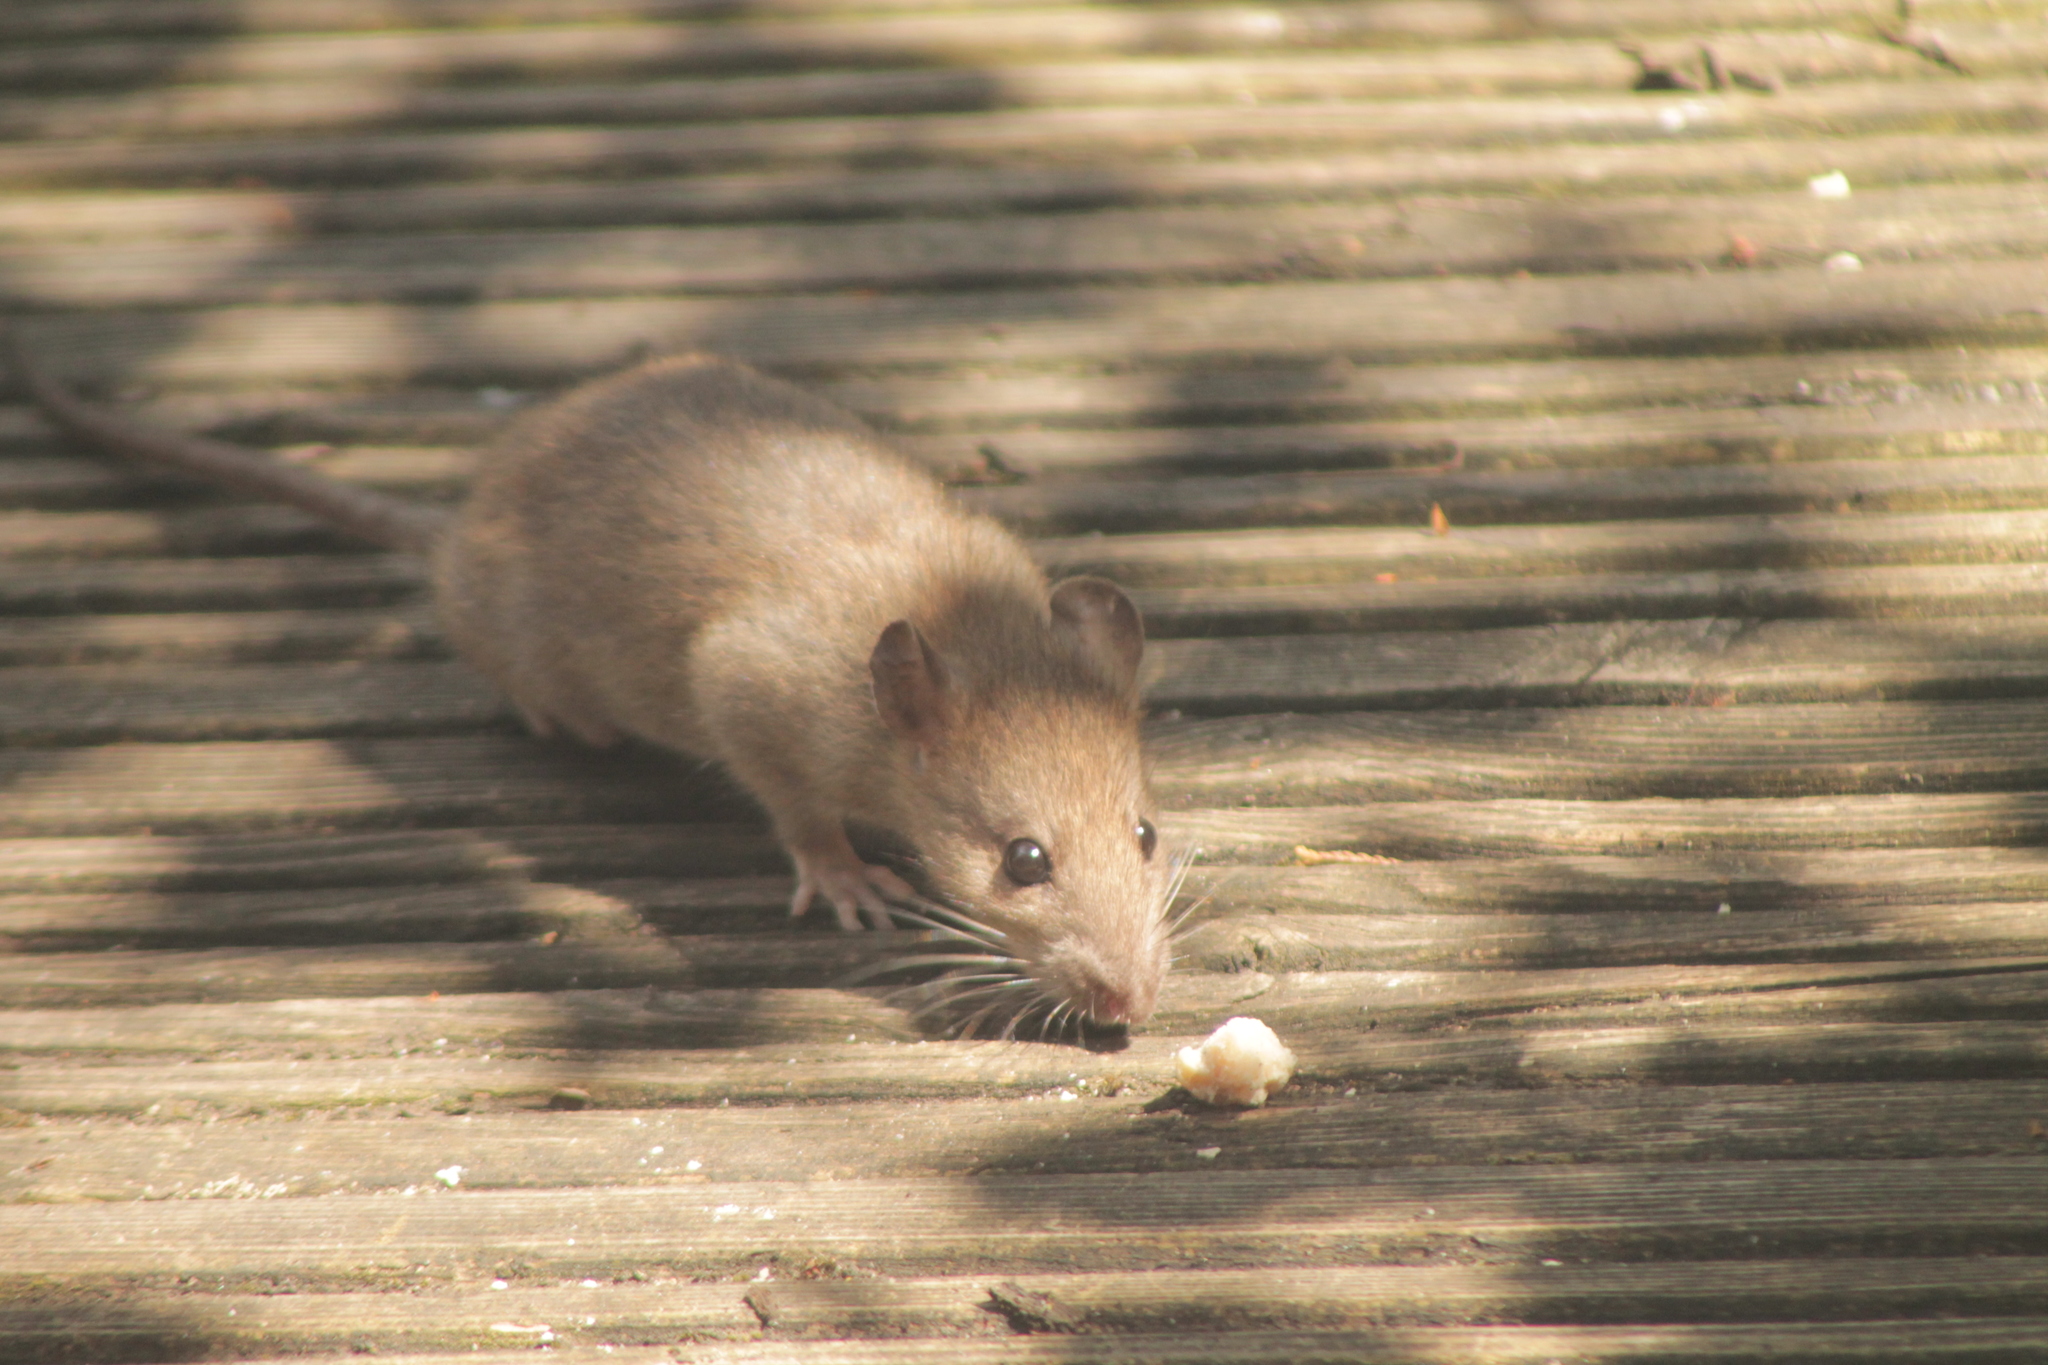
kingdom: Animalia
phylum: Chordata
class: Mammalia
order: Rodentia
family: Muridae
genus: Rattus
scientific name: Rattus norvegicus
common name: Brown rat
